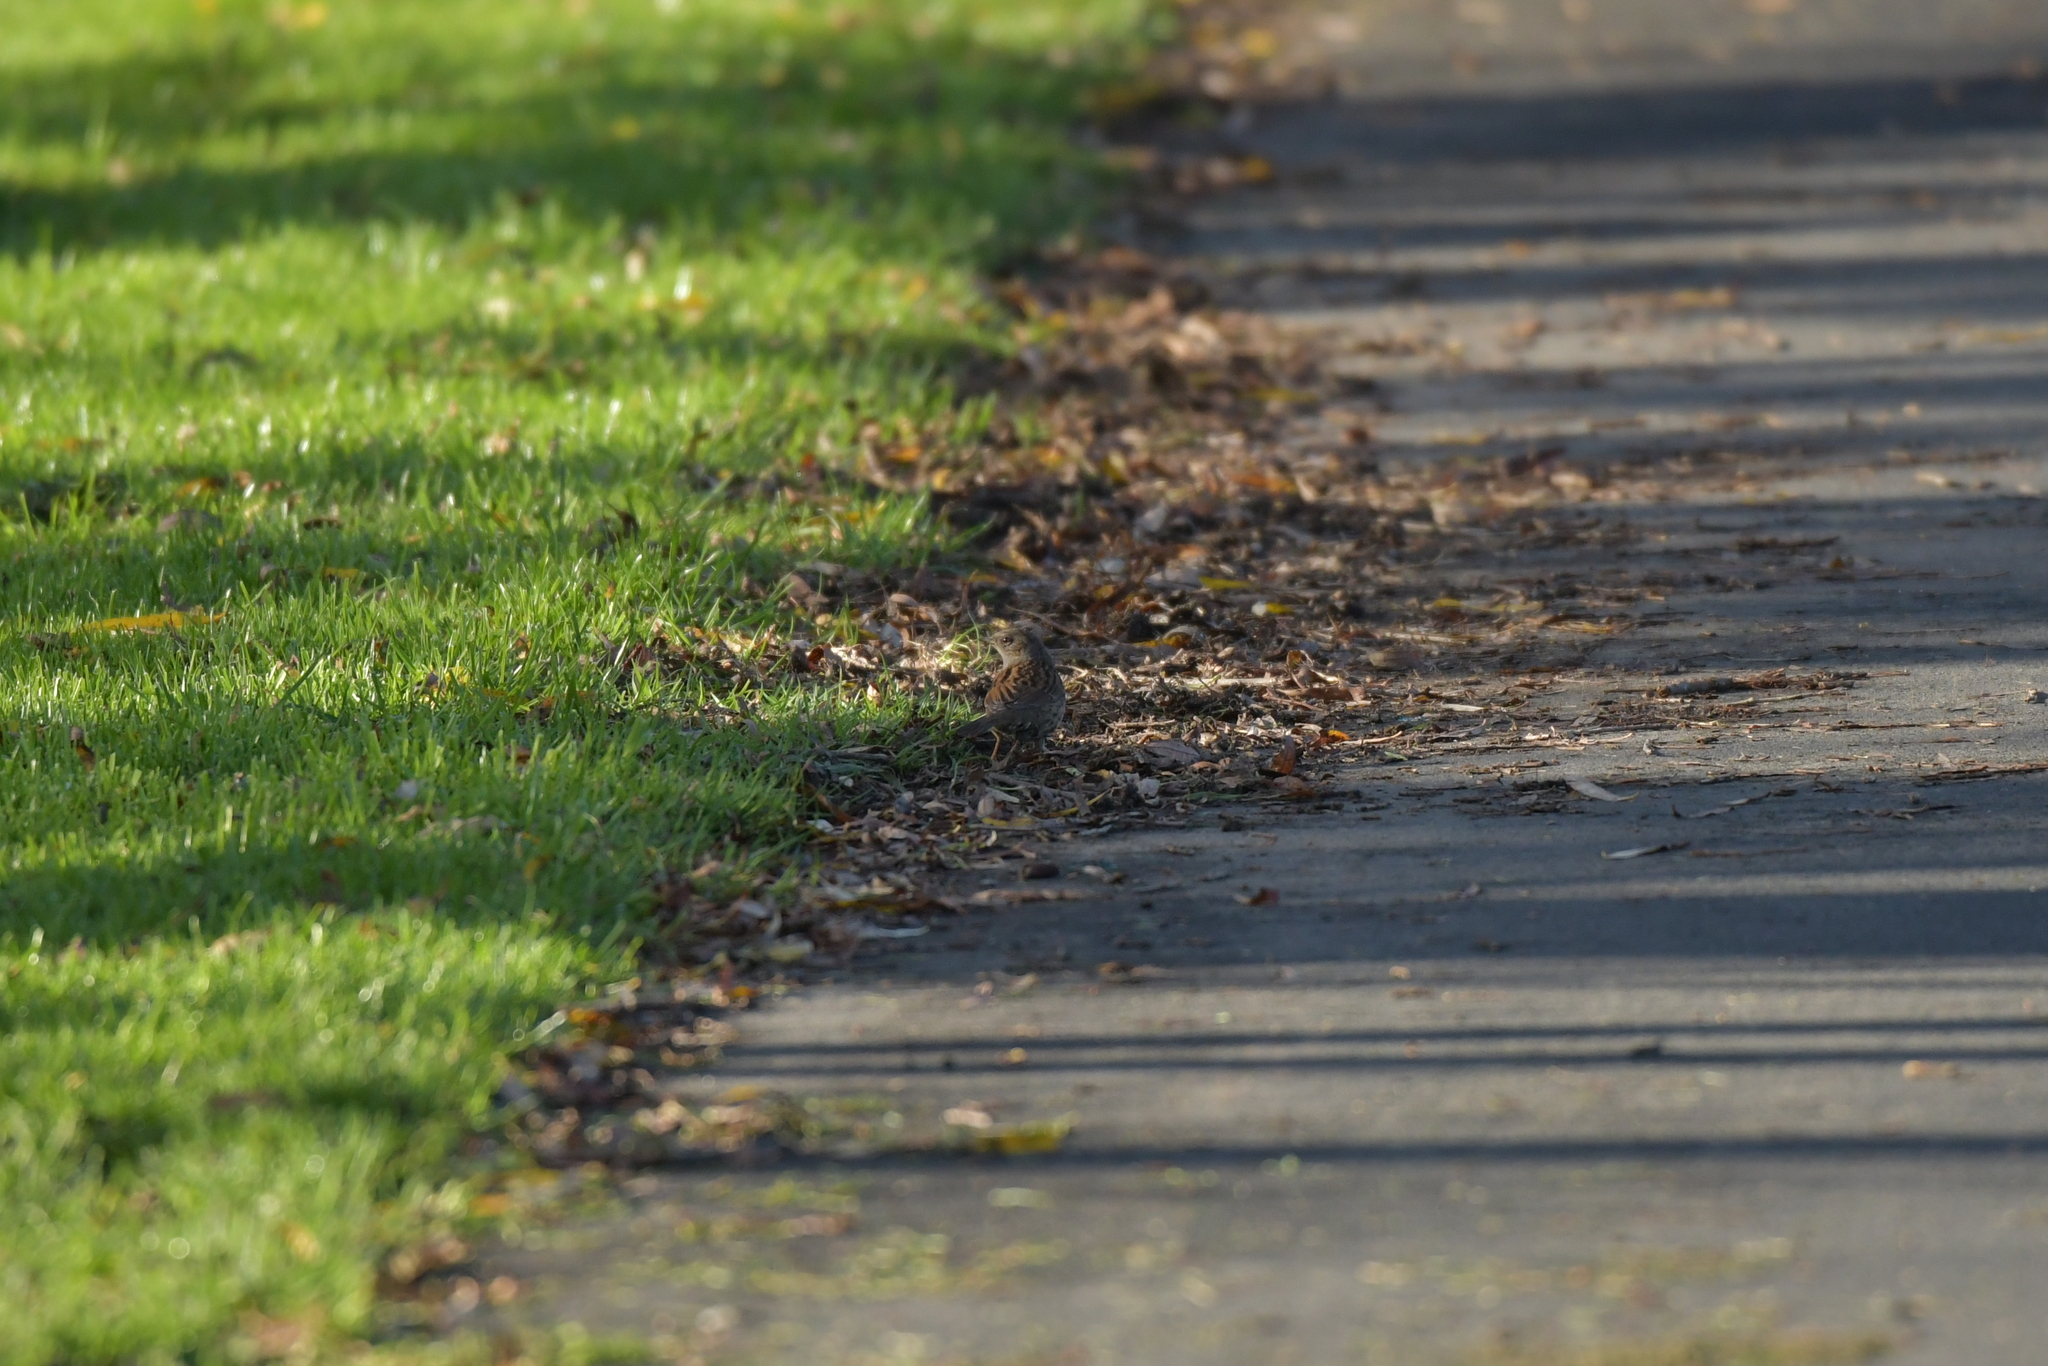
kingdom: Animalia
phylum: Chordata
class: Aves
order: Passeriformes
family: Prunellidae
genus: Prunella
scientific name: Prunella modularis
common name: Dunnock
